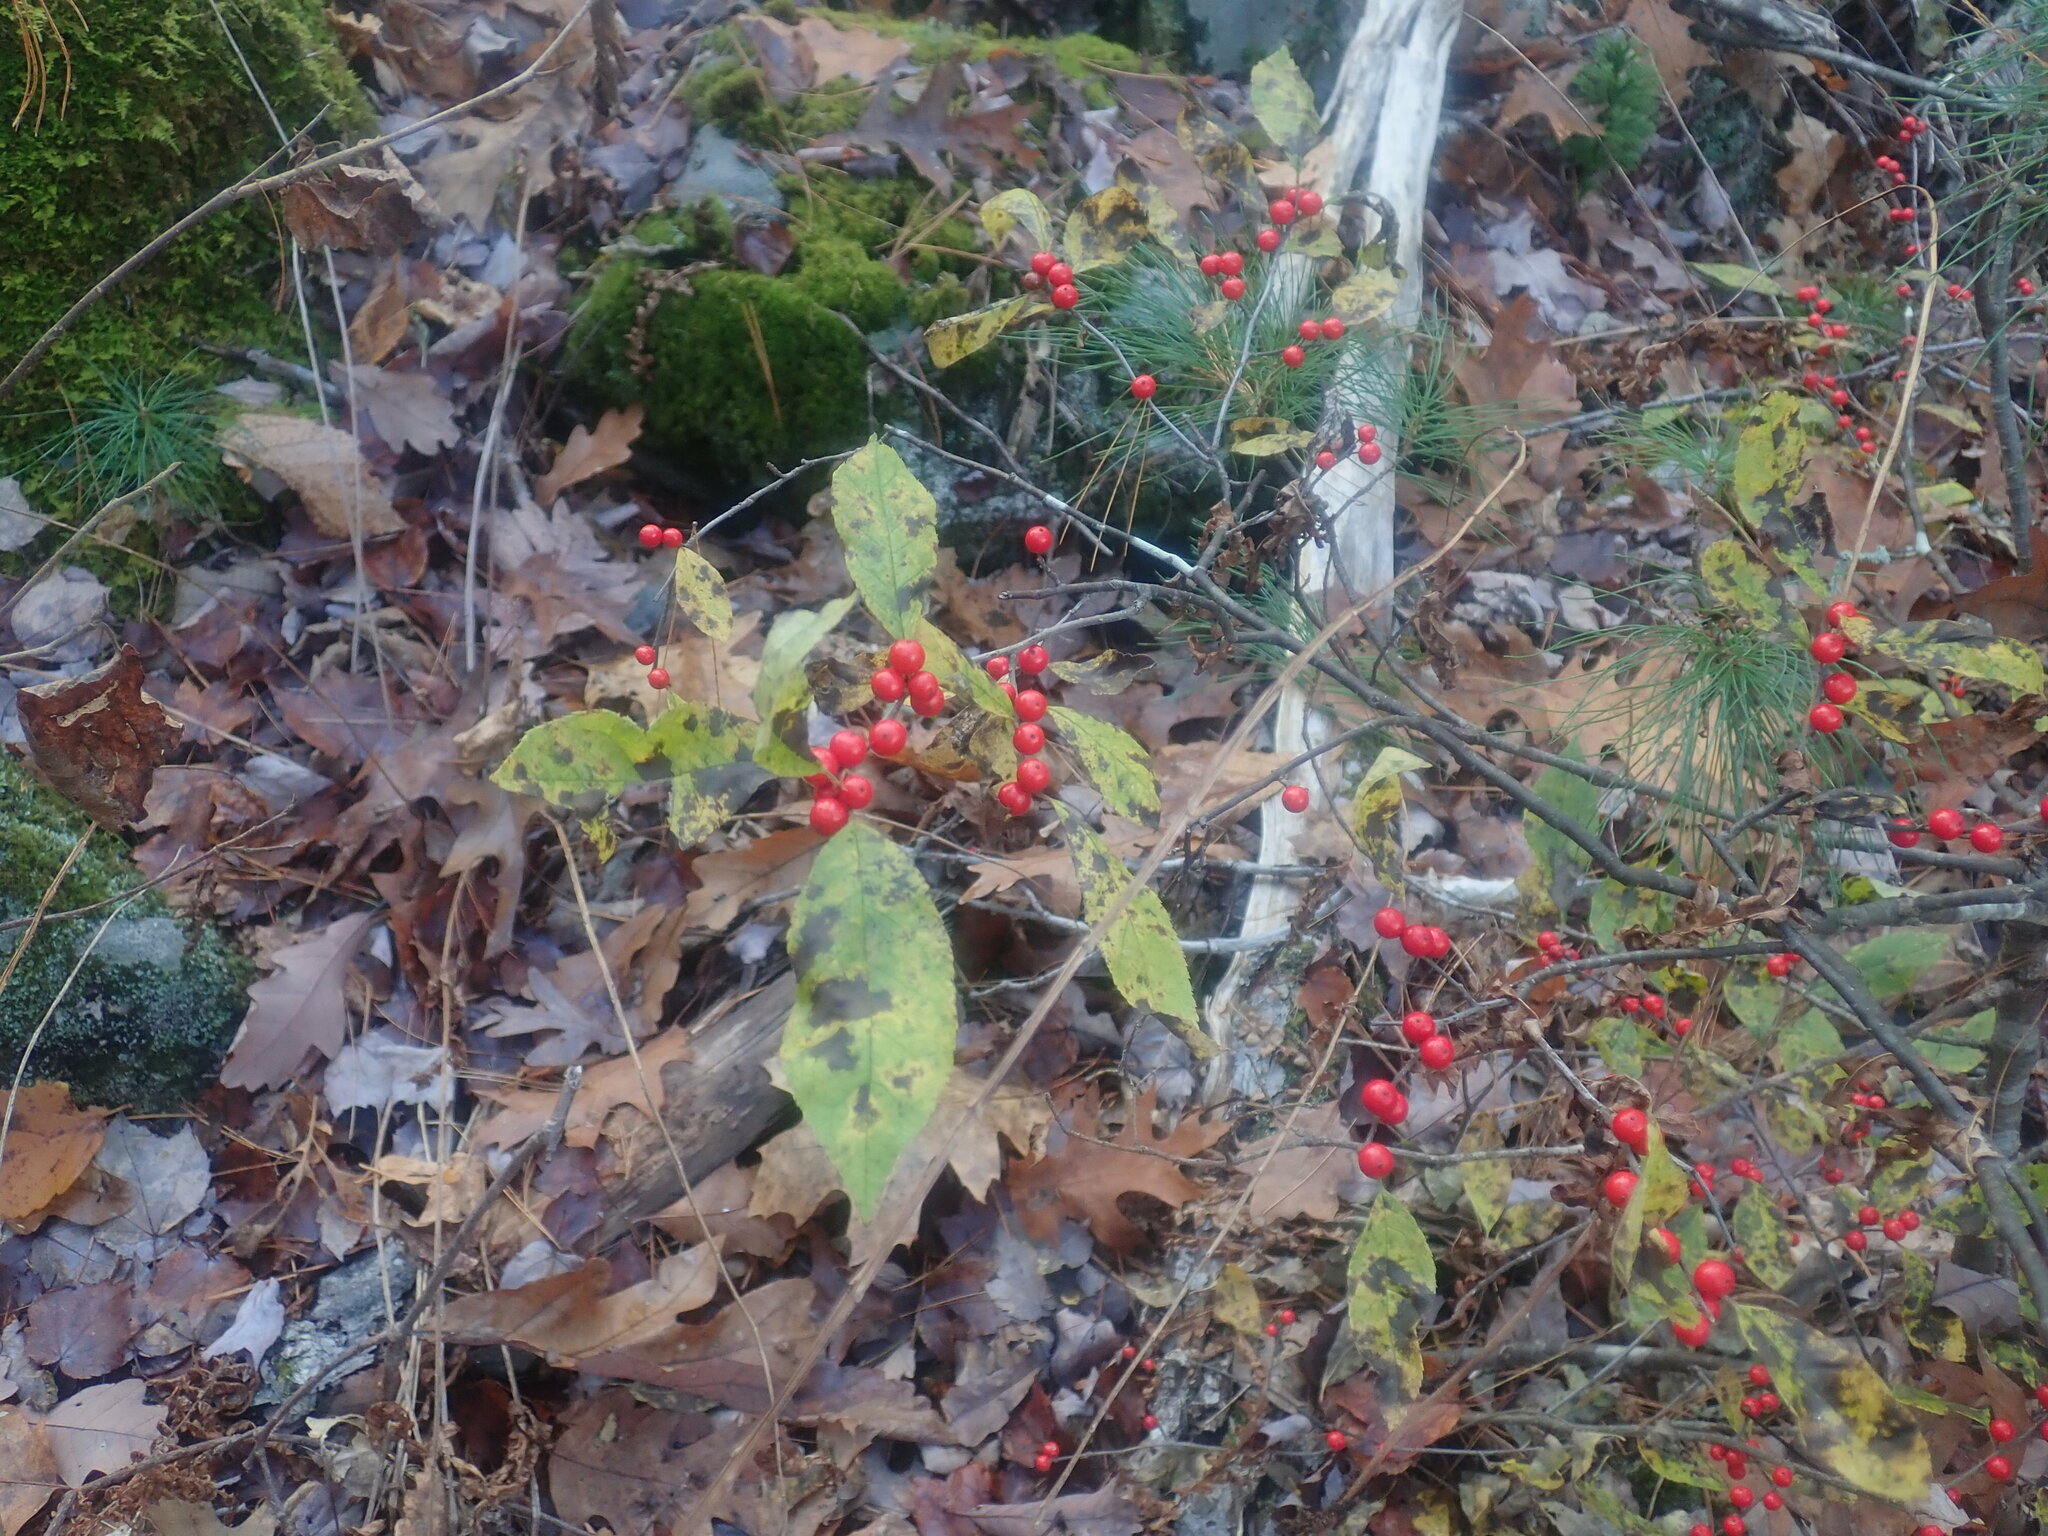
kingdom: Plantae
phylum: Tracheophyta
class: Magnoliopsida
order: Aquifoliales
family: Aquifoliaceae
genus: Ilex
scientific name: Ilex verticillata
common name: Virginia winterberry
